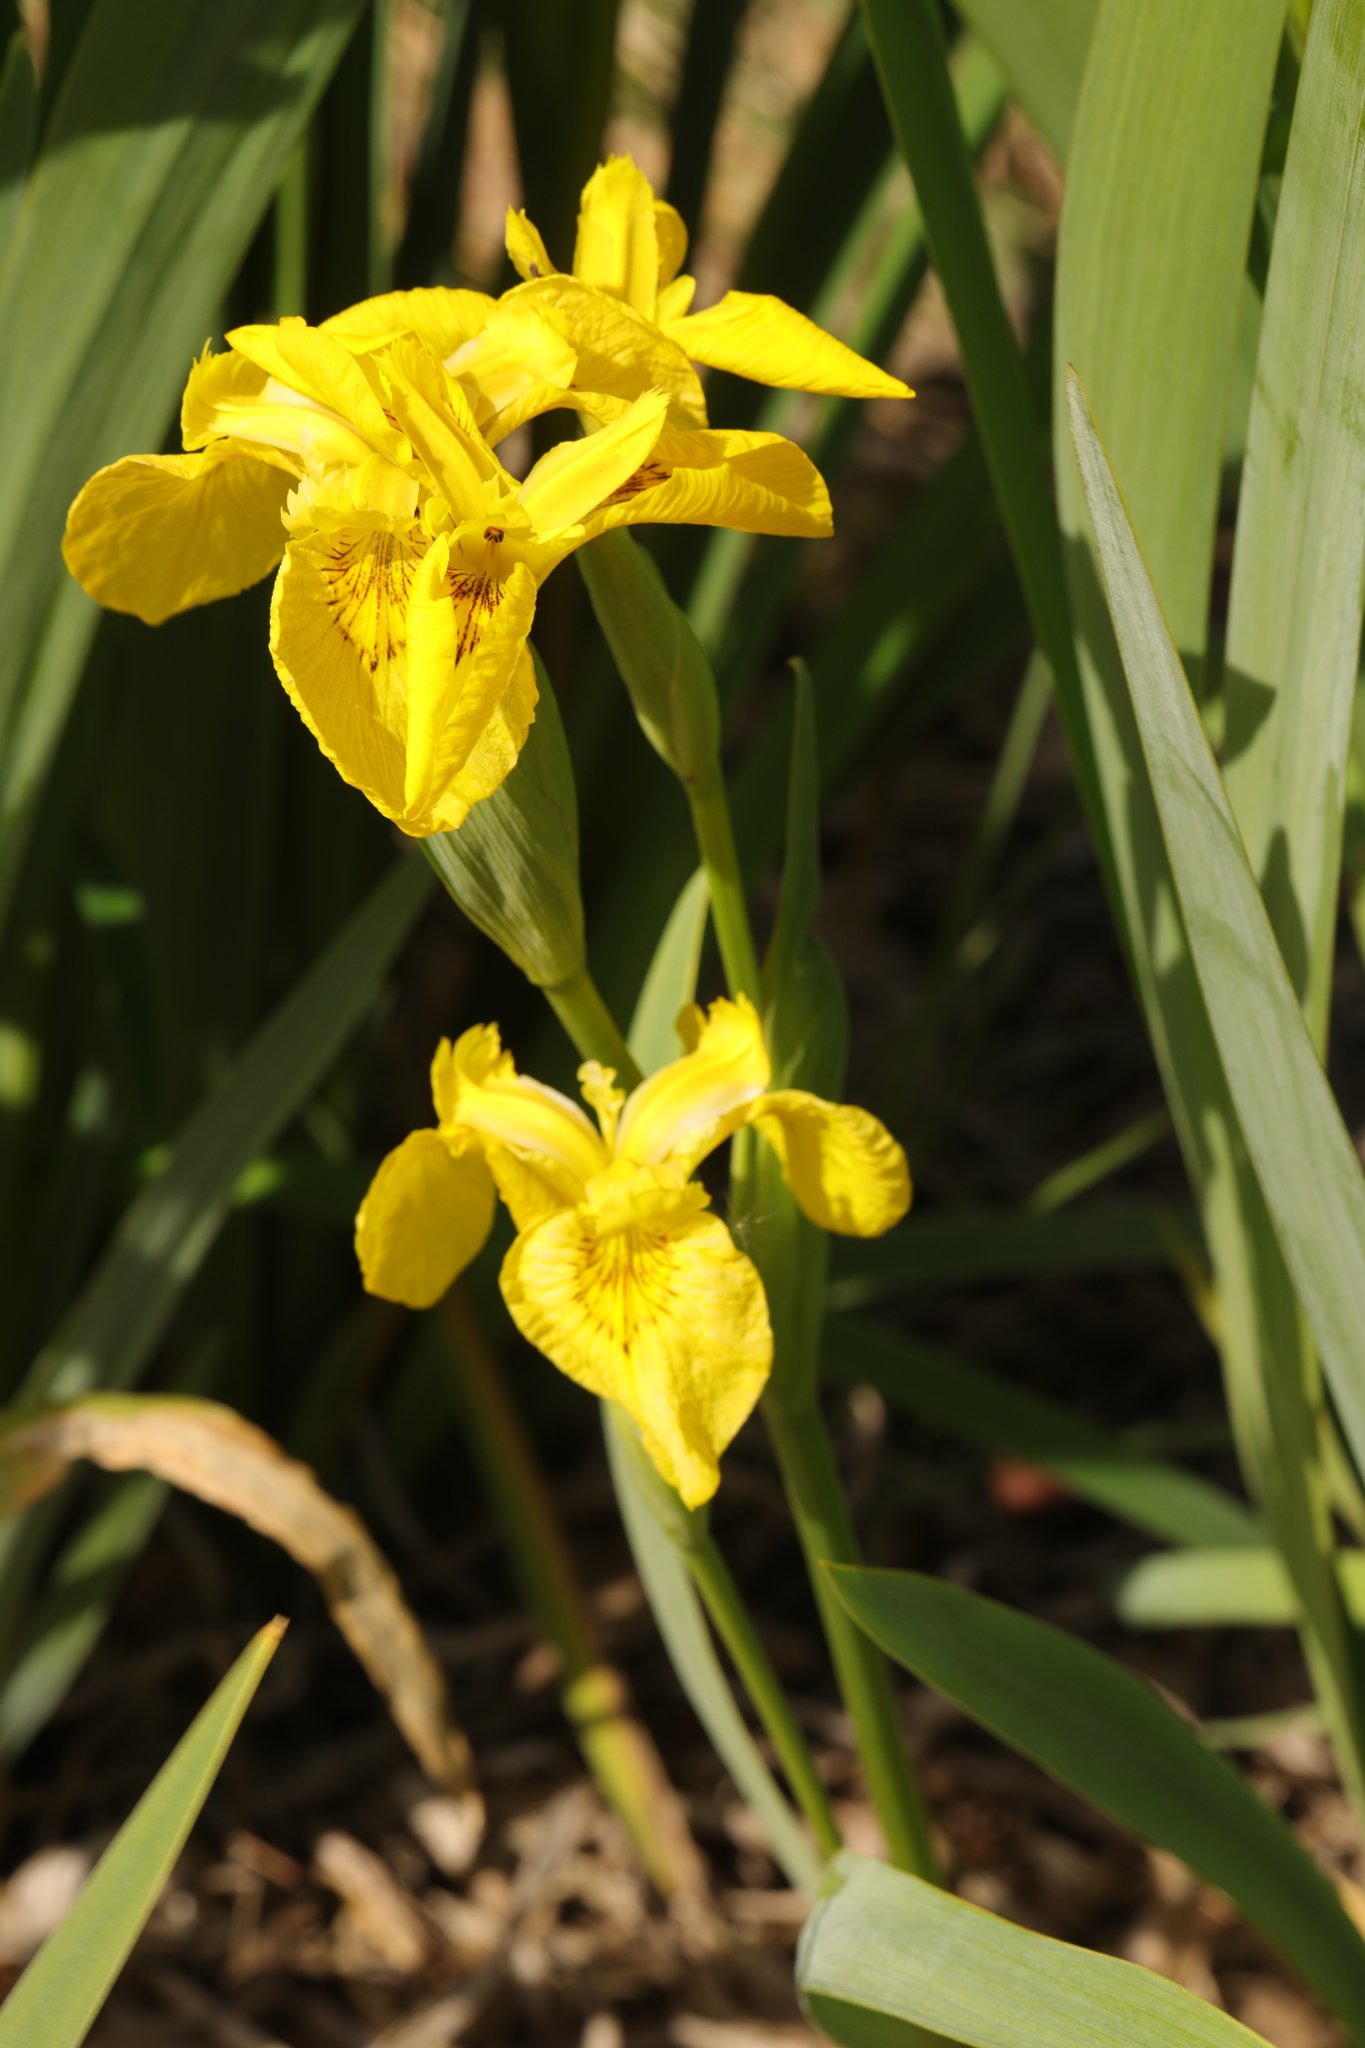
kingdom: Plantae
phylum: Tracheophyta
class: Liliopsida
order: Asparagales
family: Iridaceae
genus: Iris
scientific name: Iris pseudacorus
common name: Yellow flag
